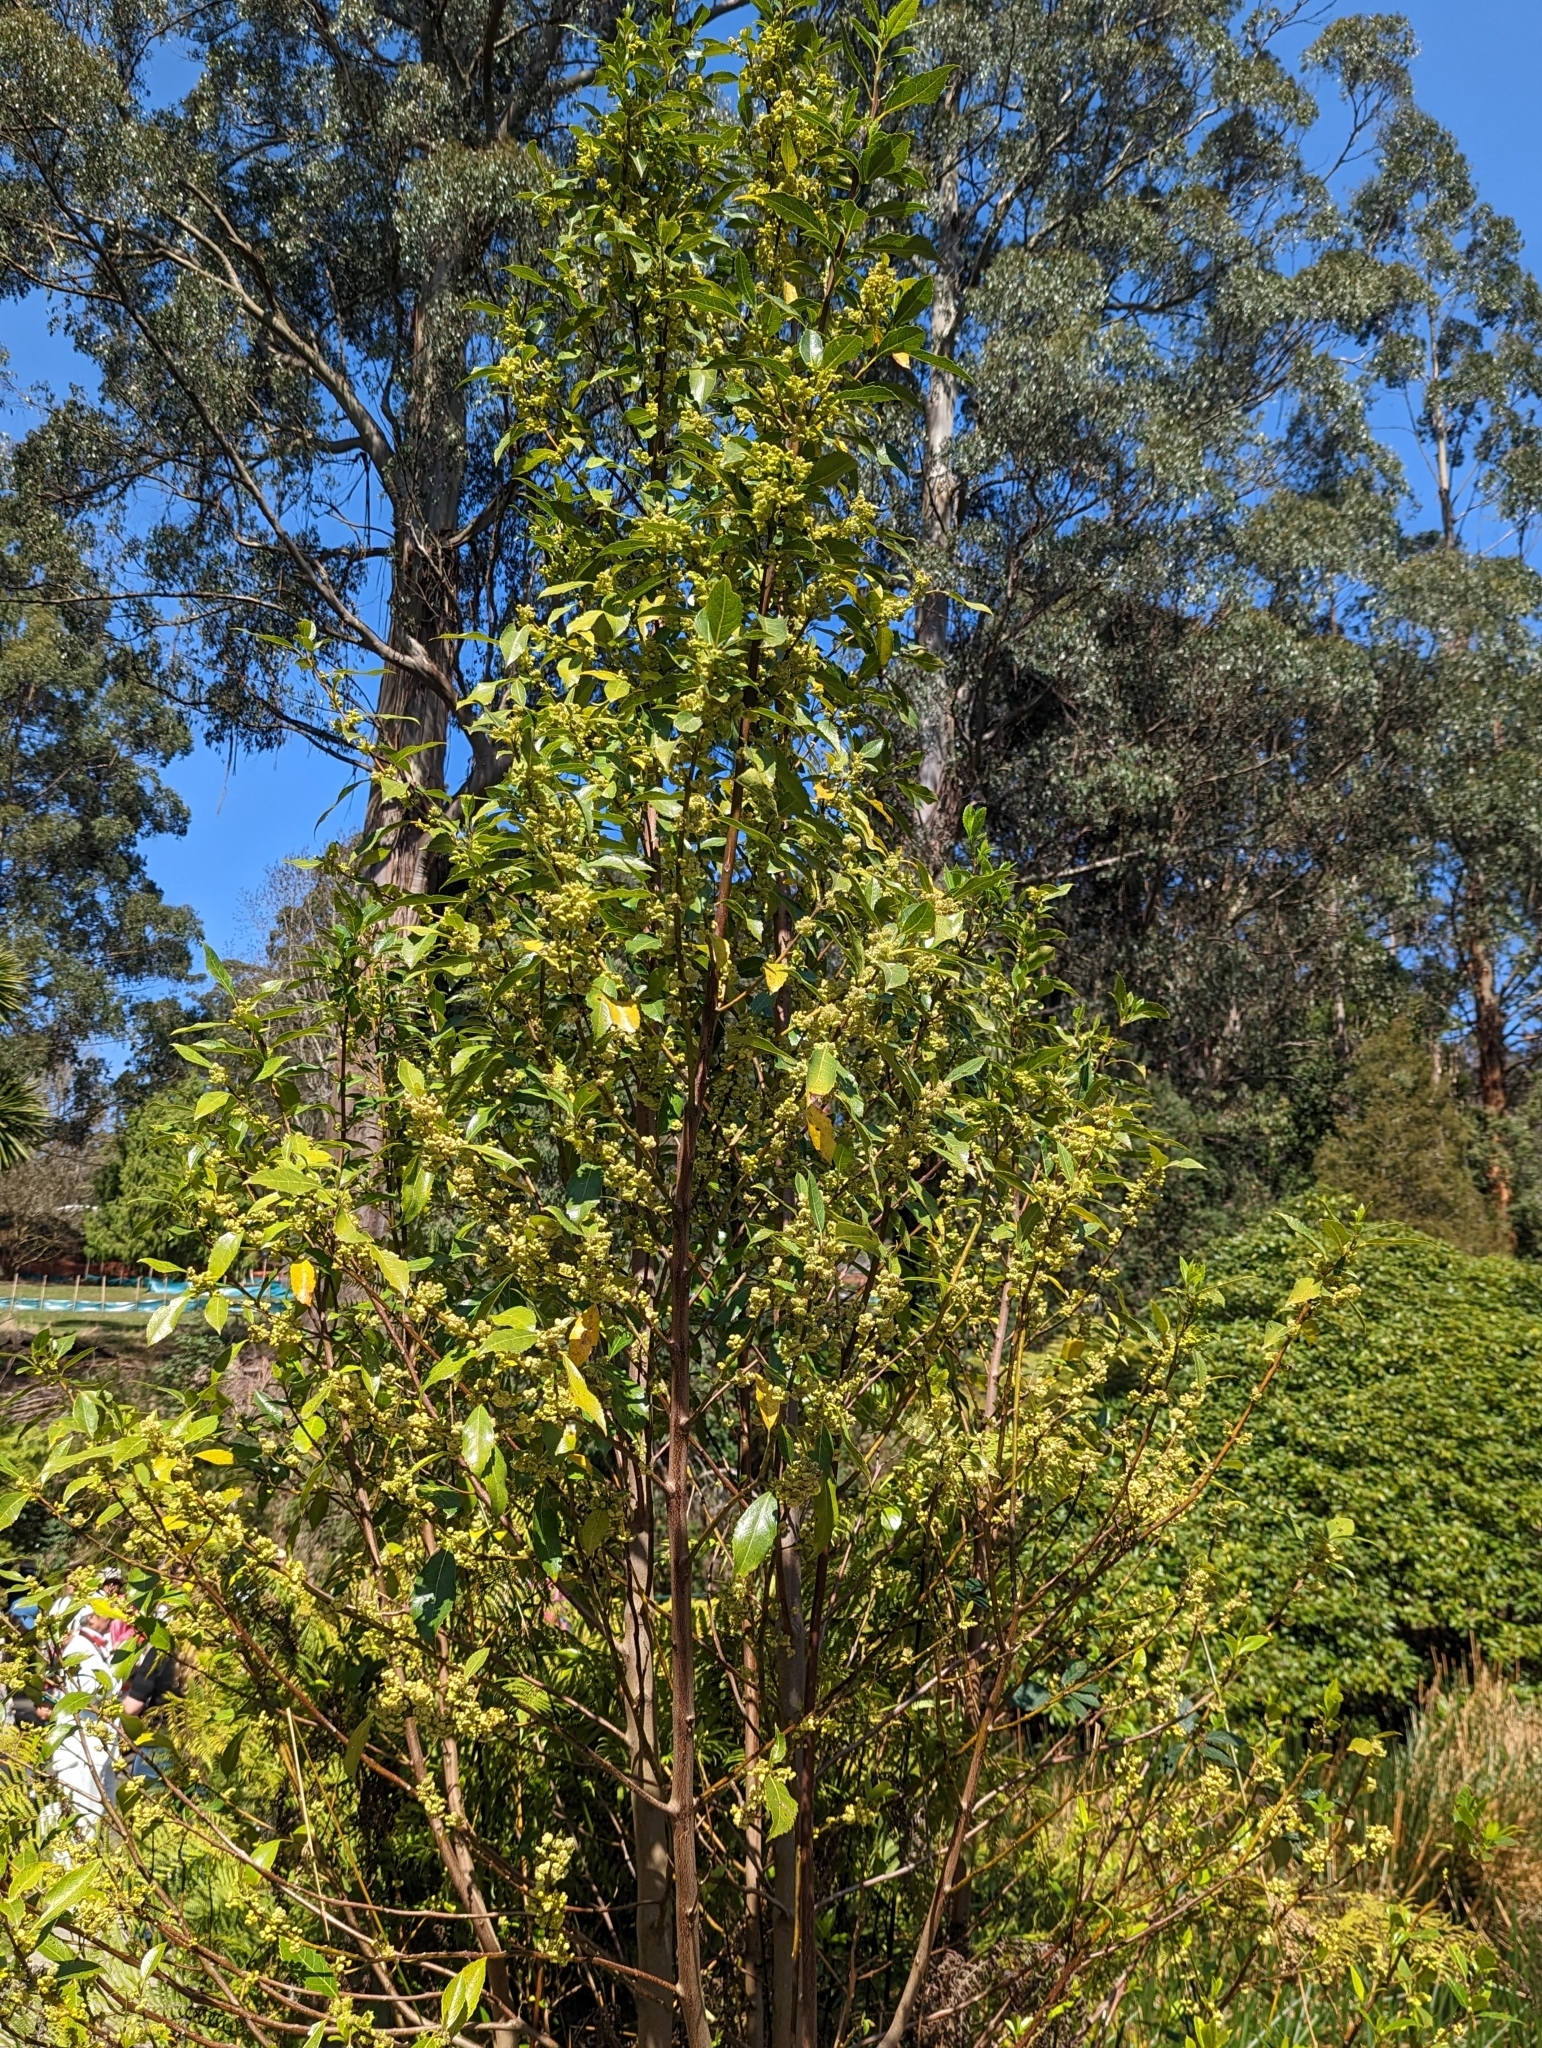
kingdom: Plantae
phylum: Tracheophyta
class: Magnoliopsida
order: Laurales
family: Monimiaceae
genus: Hedycarya
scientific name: Hedycarya angustifolia
